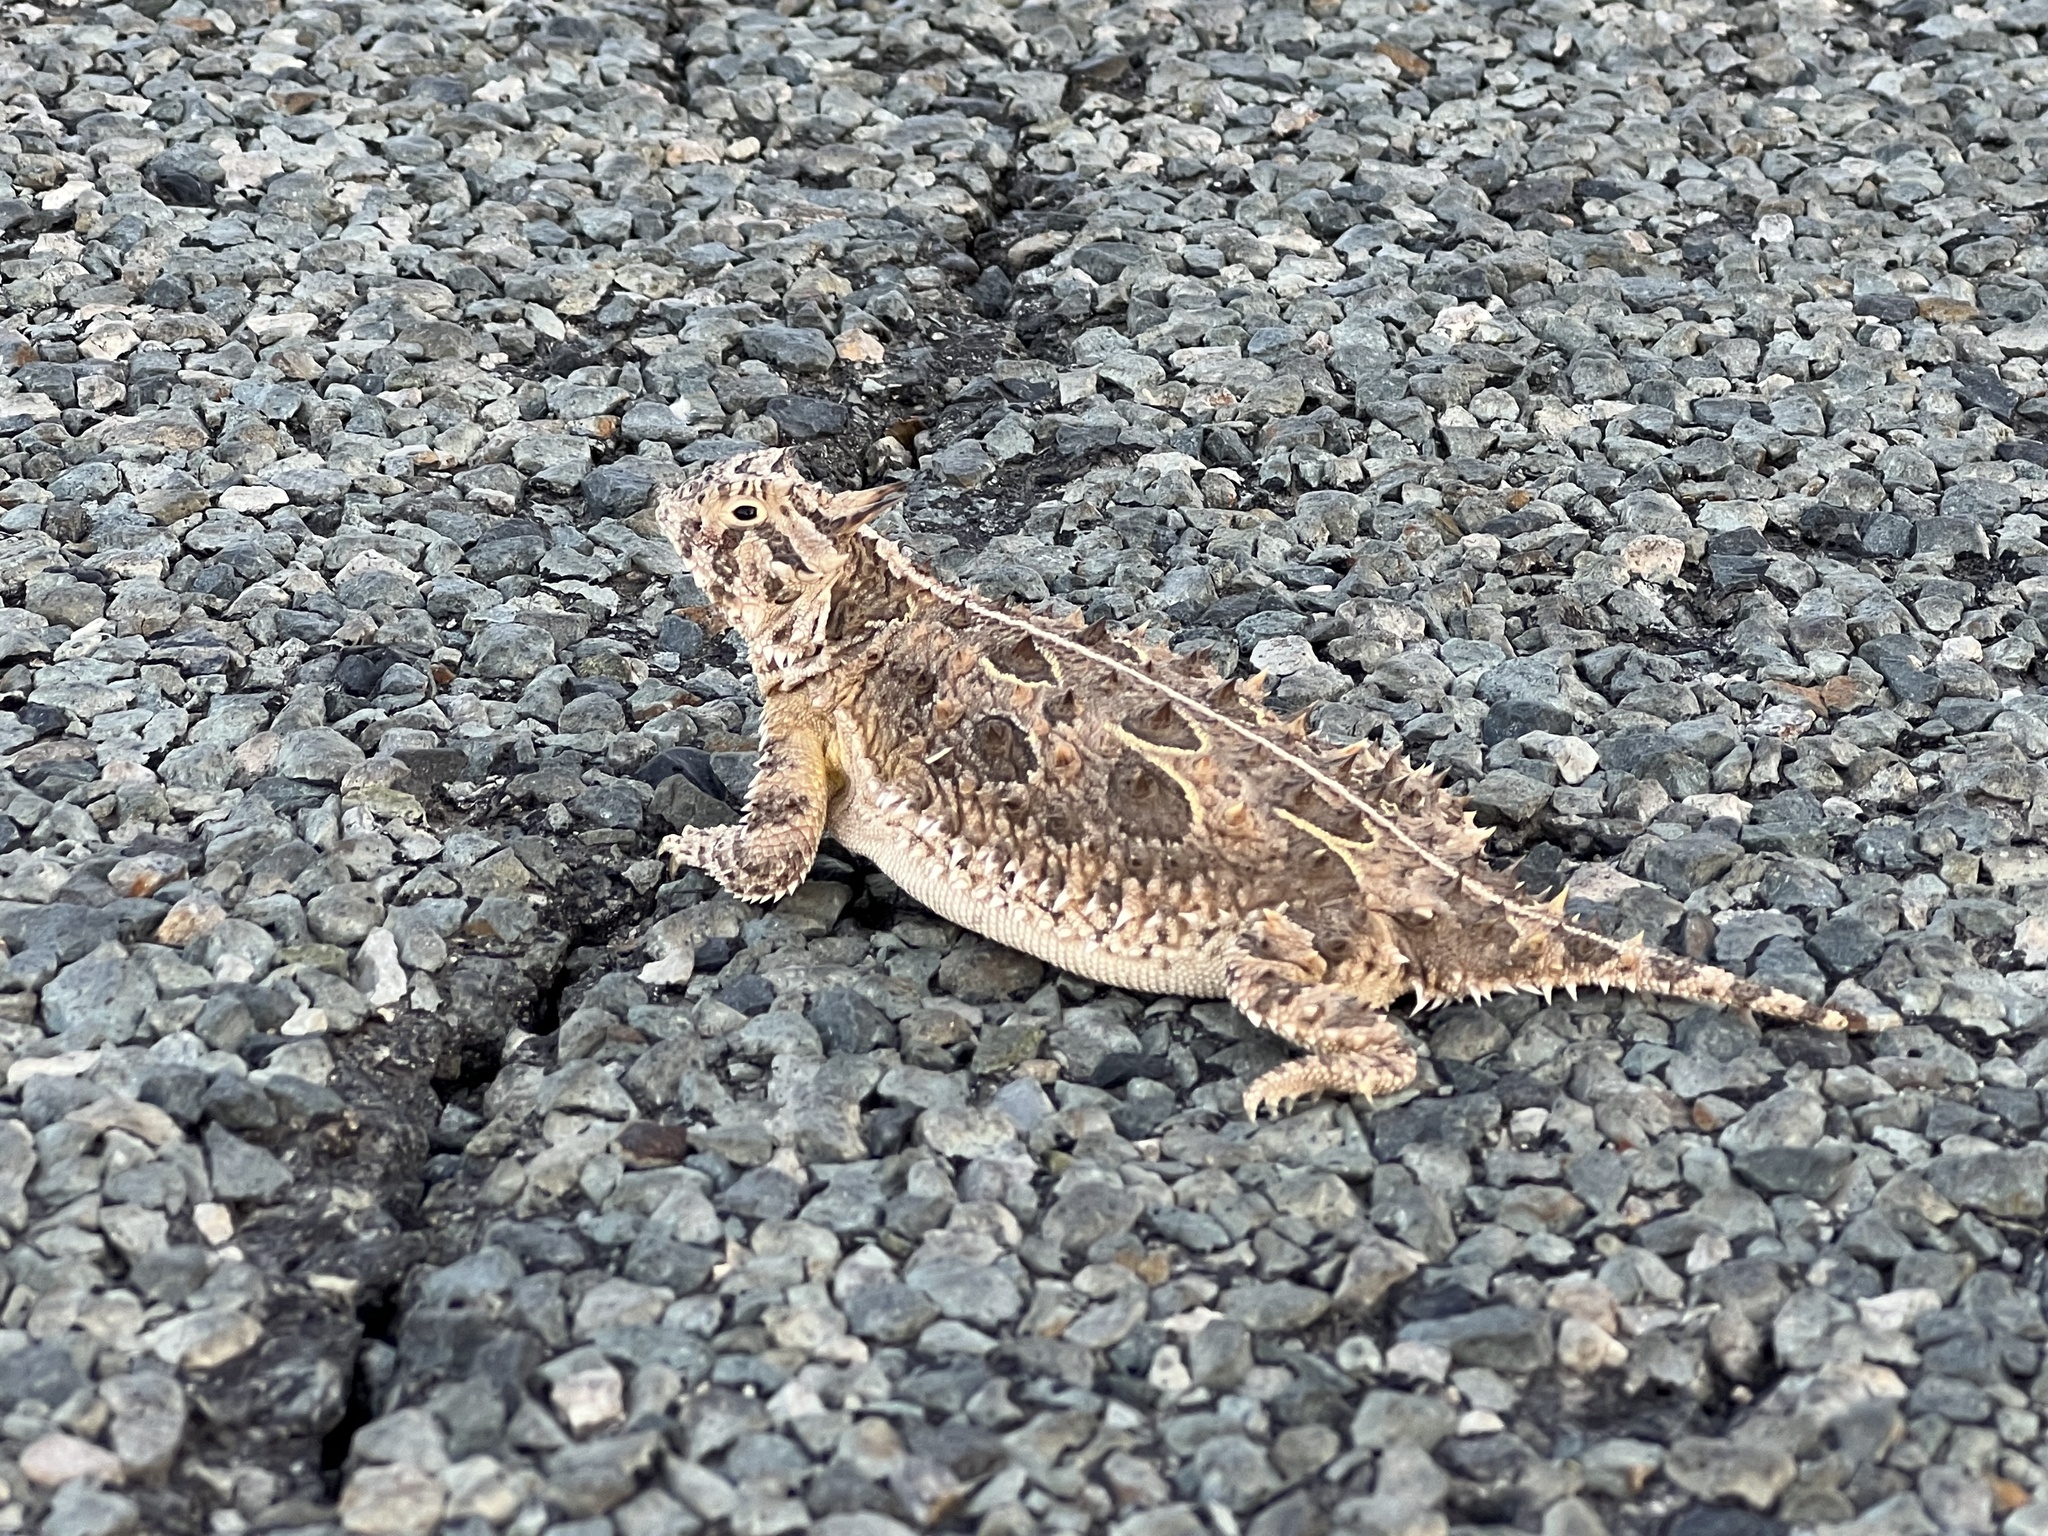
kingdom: Animalia
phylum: Chordata
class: Squamata
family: Phrynosomatidae
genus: Phrynosoma
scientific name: Phrynosoma cornutum
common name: Texas horned lizard
